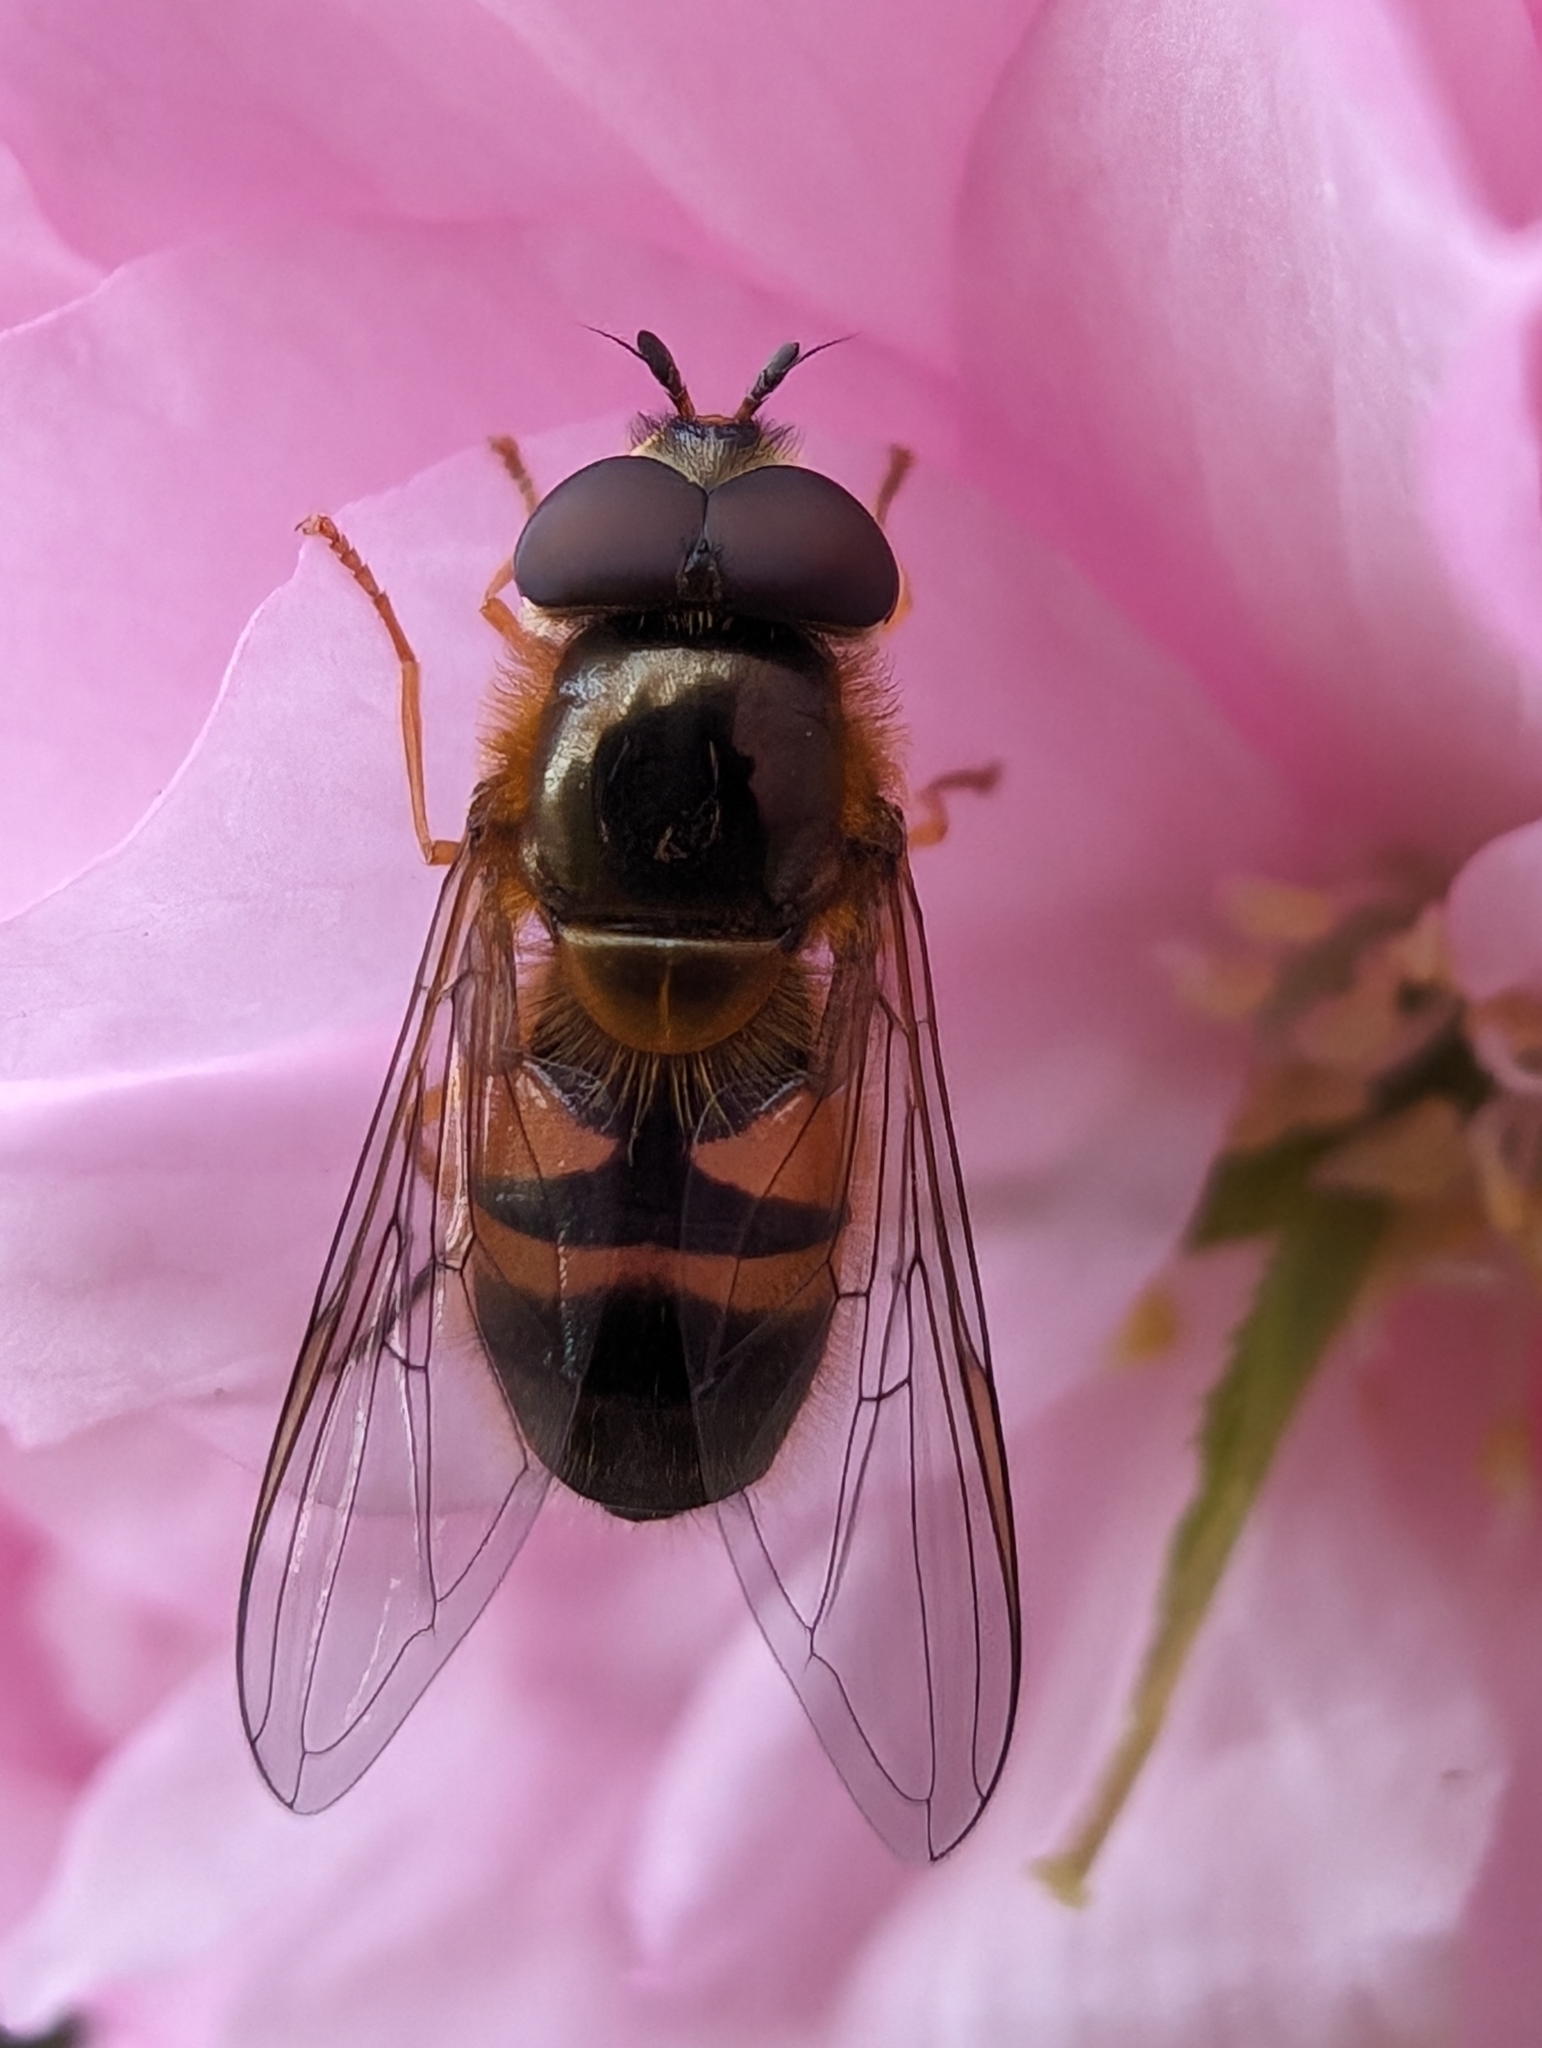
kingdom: Animalia
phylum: Arthropoda
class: Insecta
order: Diptera
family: Syrphidae
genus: Epistrophe
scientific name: Epistrophe eligans
